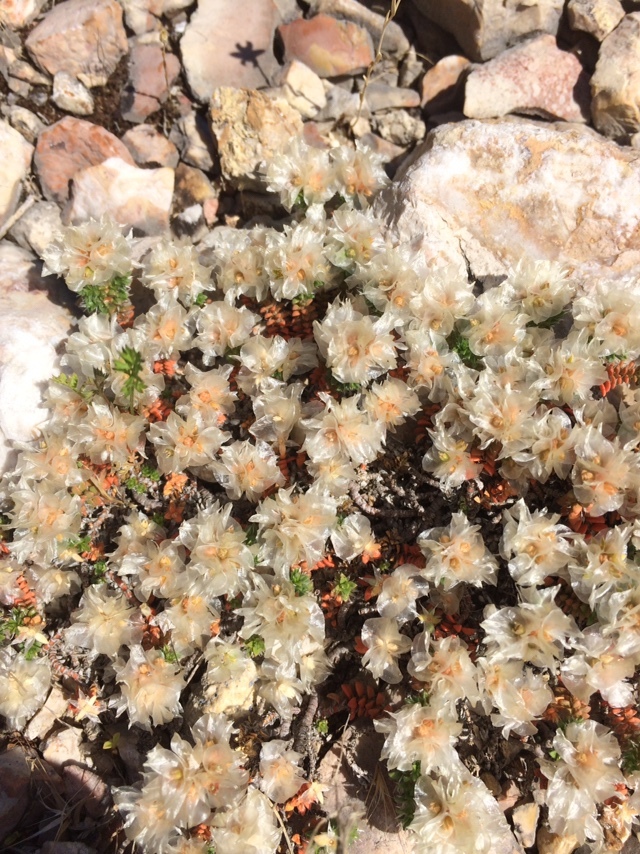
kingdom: Plantae
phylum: Tracheophyta
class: Magnoliopsida
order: Caryophyllales
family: Caryophyllaceae
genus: Paronychia
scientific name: Paronychia cephalotes
